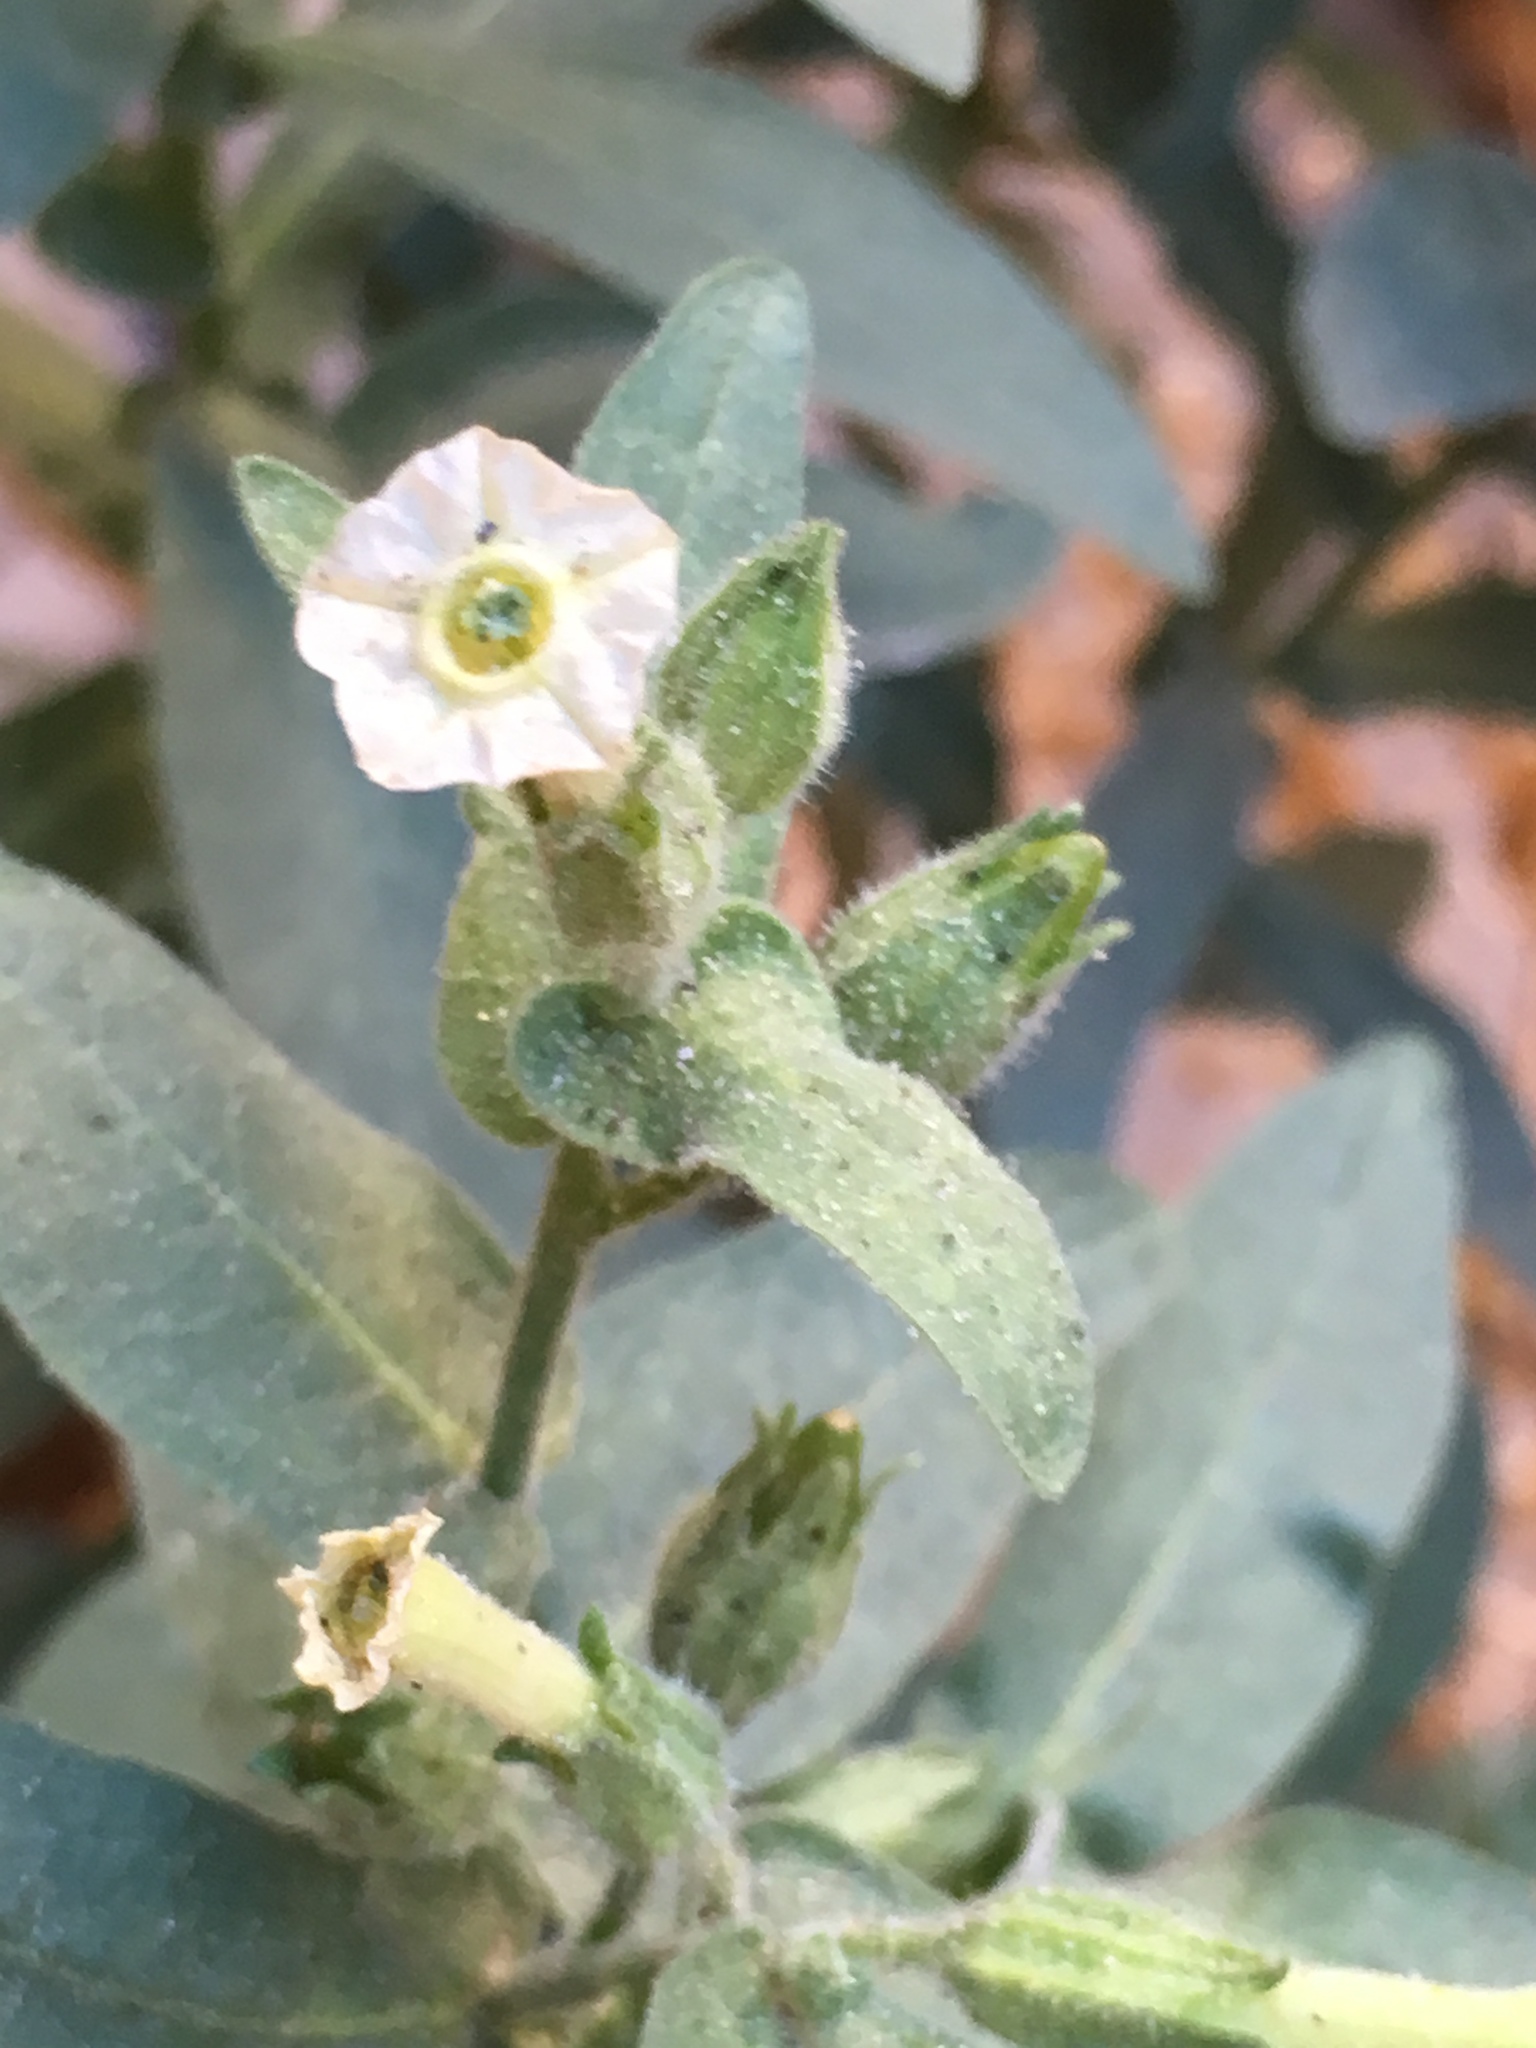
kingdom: Plantae
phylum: Tracheophyta
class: Magnoliopsida
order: Solanales
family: Solanaceae
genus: Nicotiana
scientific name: Nicotiana obtusifolia
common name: Desert tobacco
